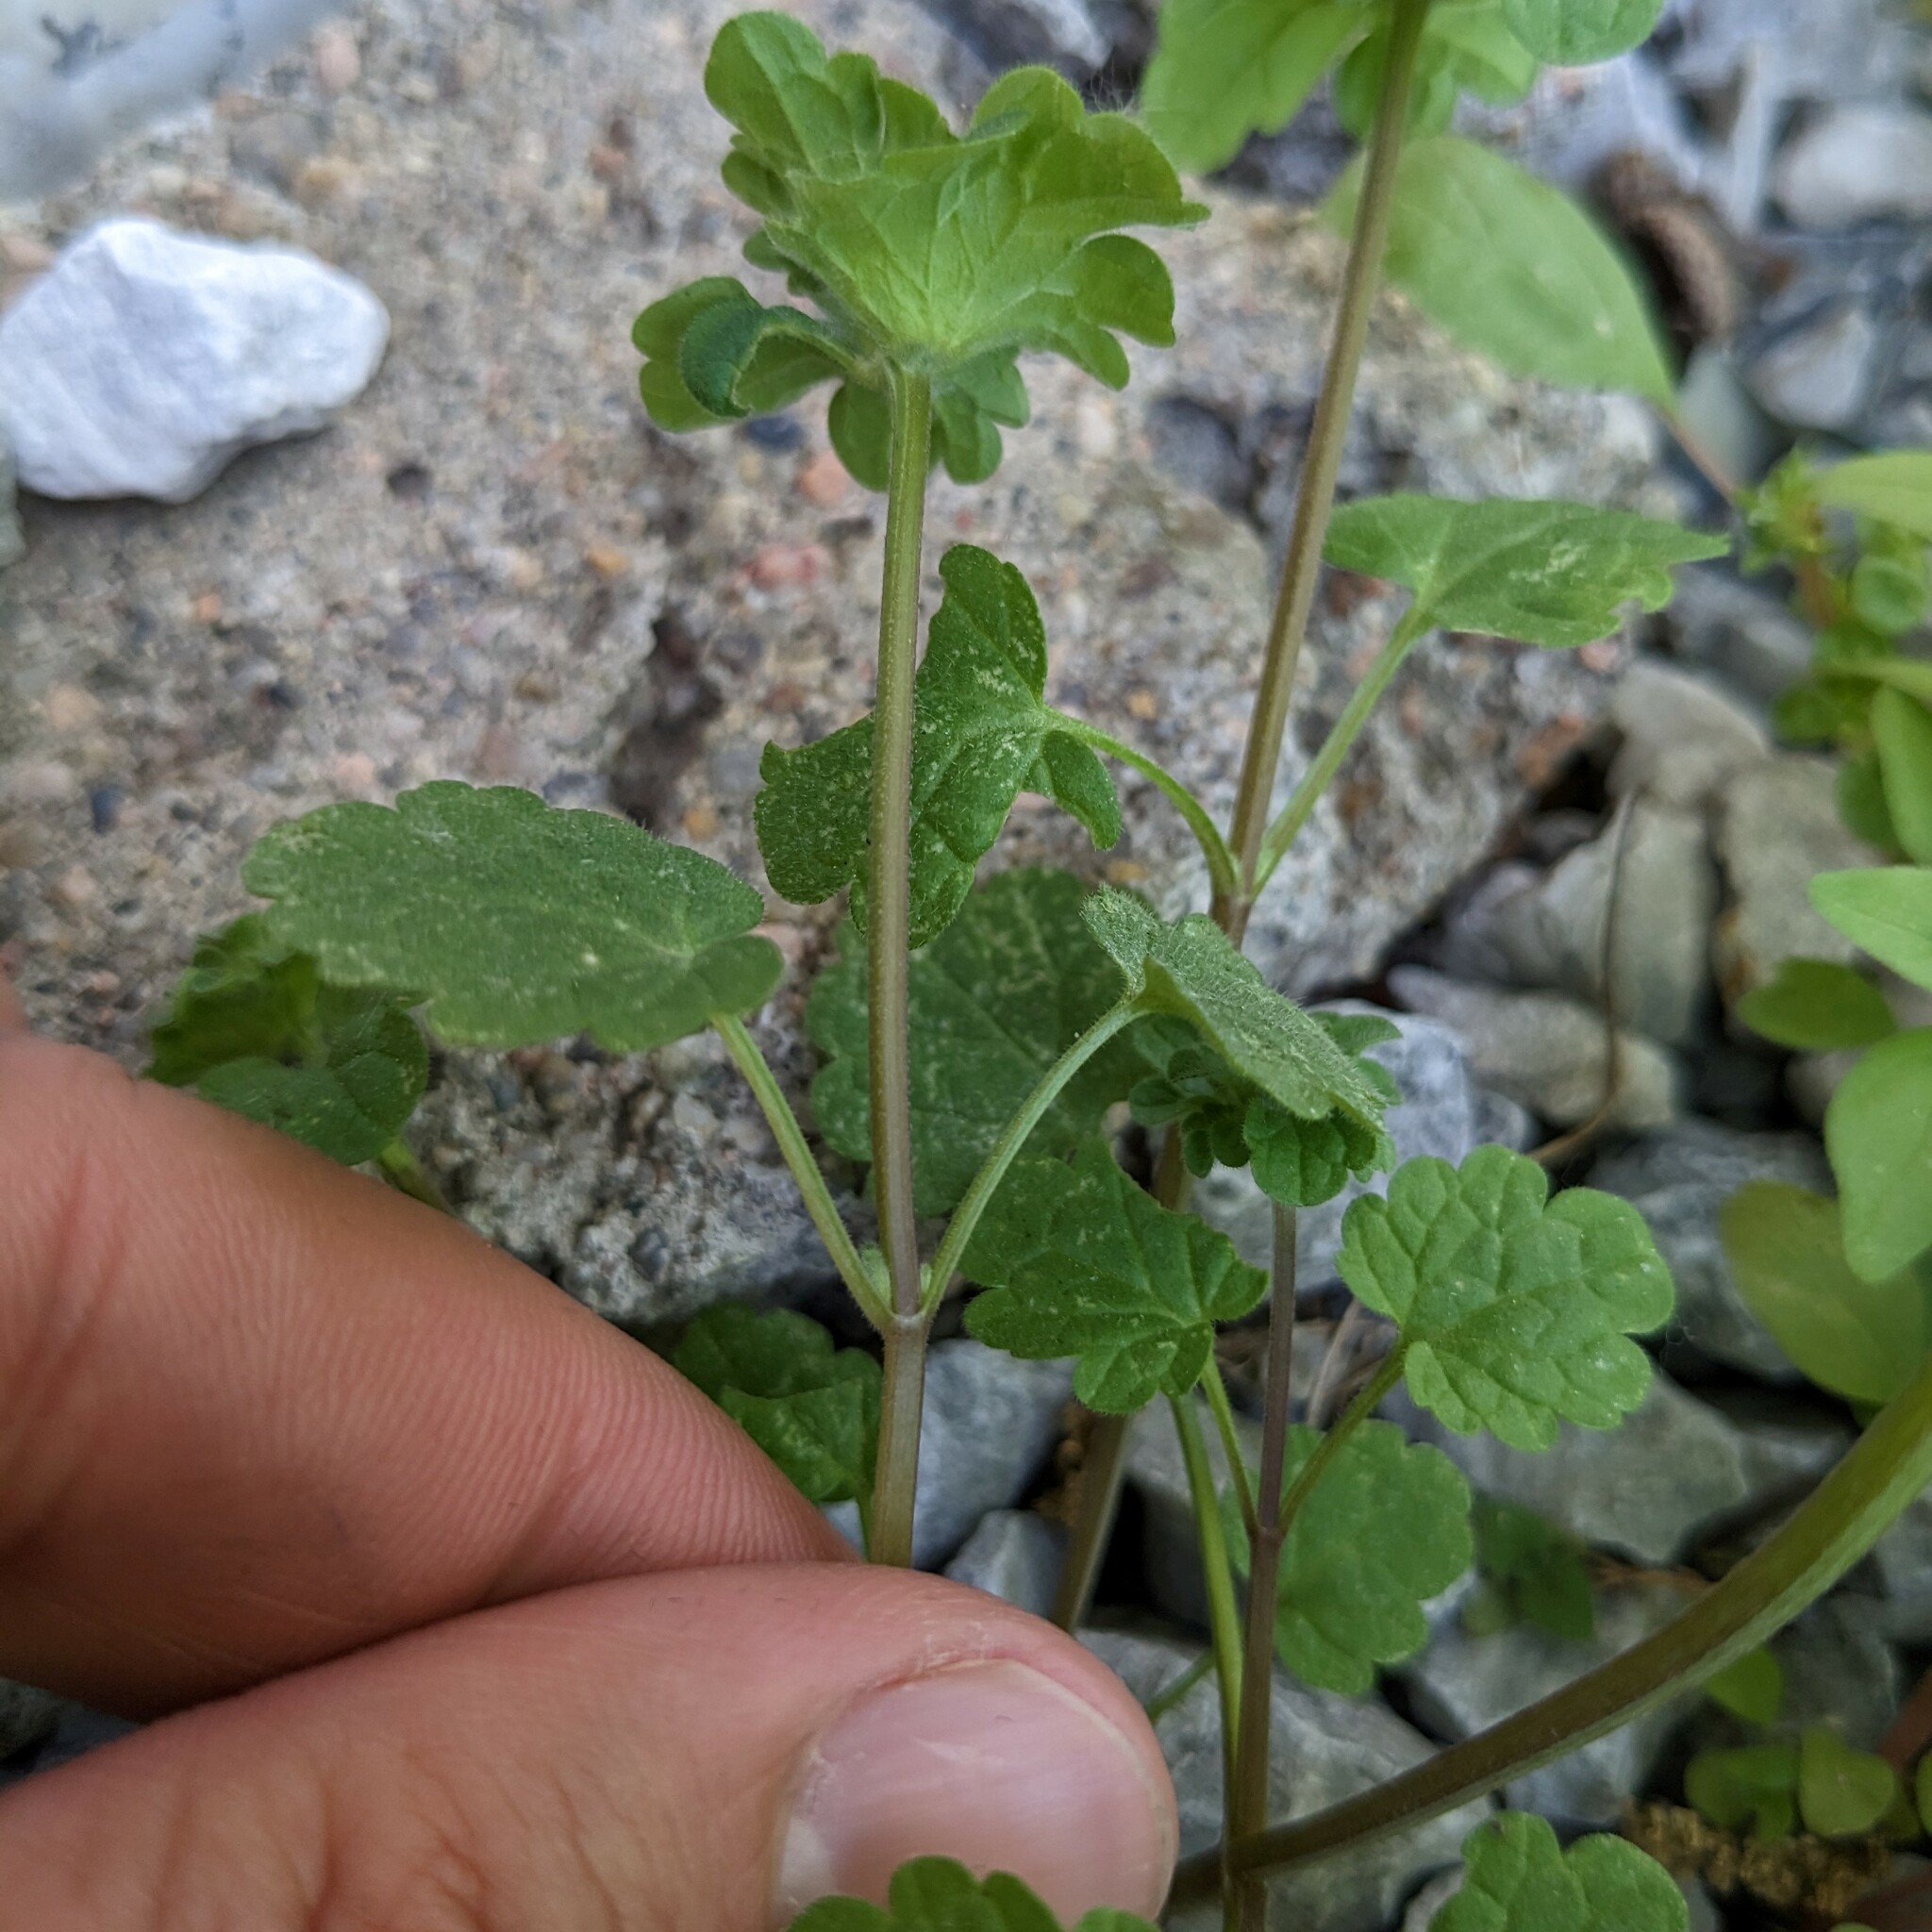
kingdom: Plantae
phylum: Tracheophyta
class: Magnoliopsida
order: Lamiales
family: Lamiaceae
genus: Lamium
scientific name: Lamium amplexicaule
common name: Henbit dead-nettle
